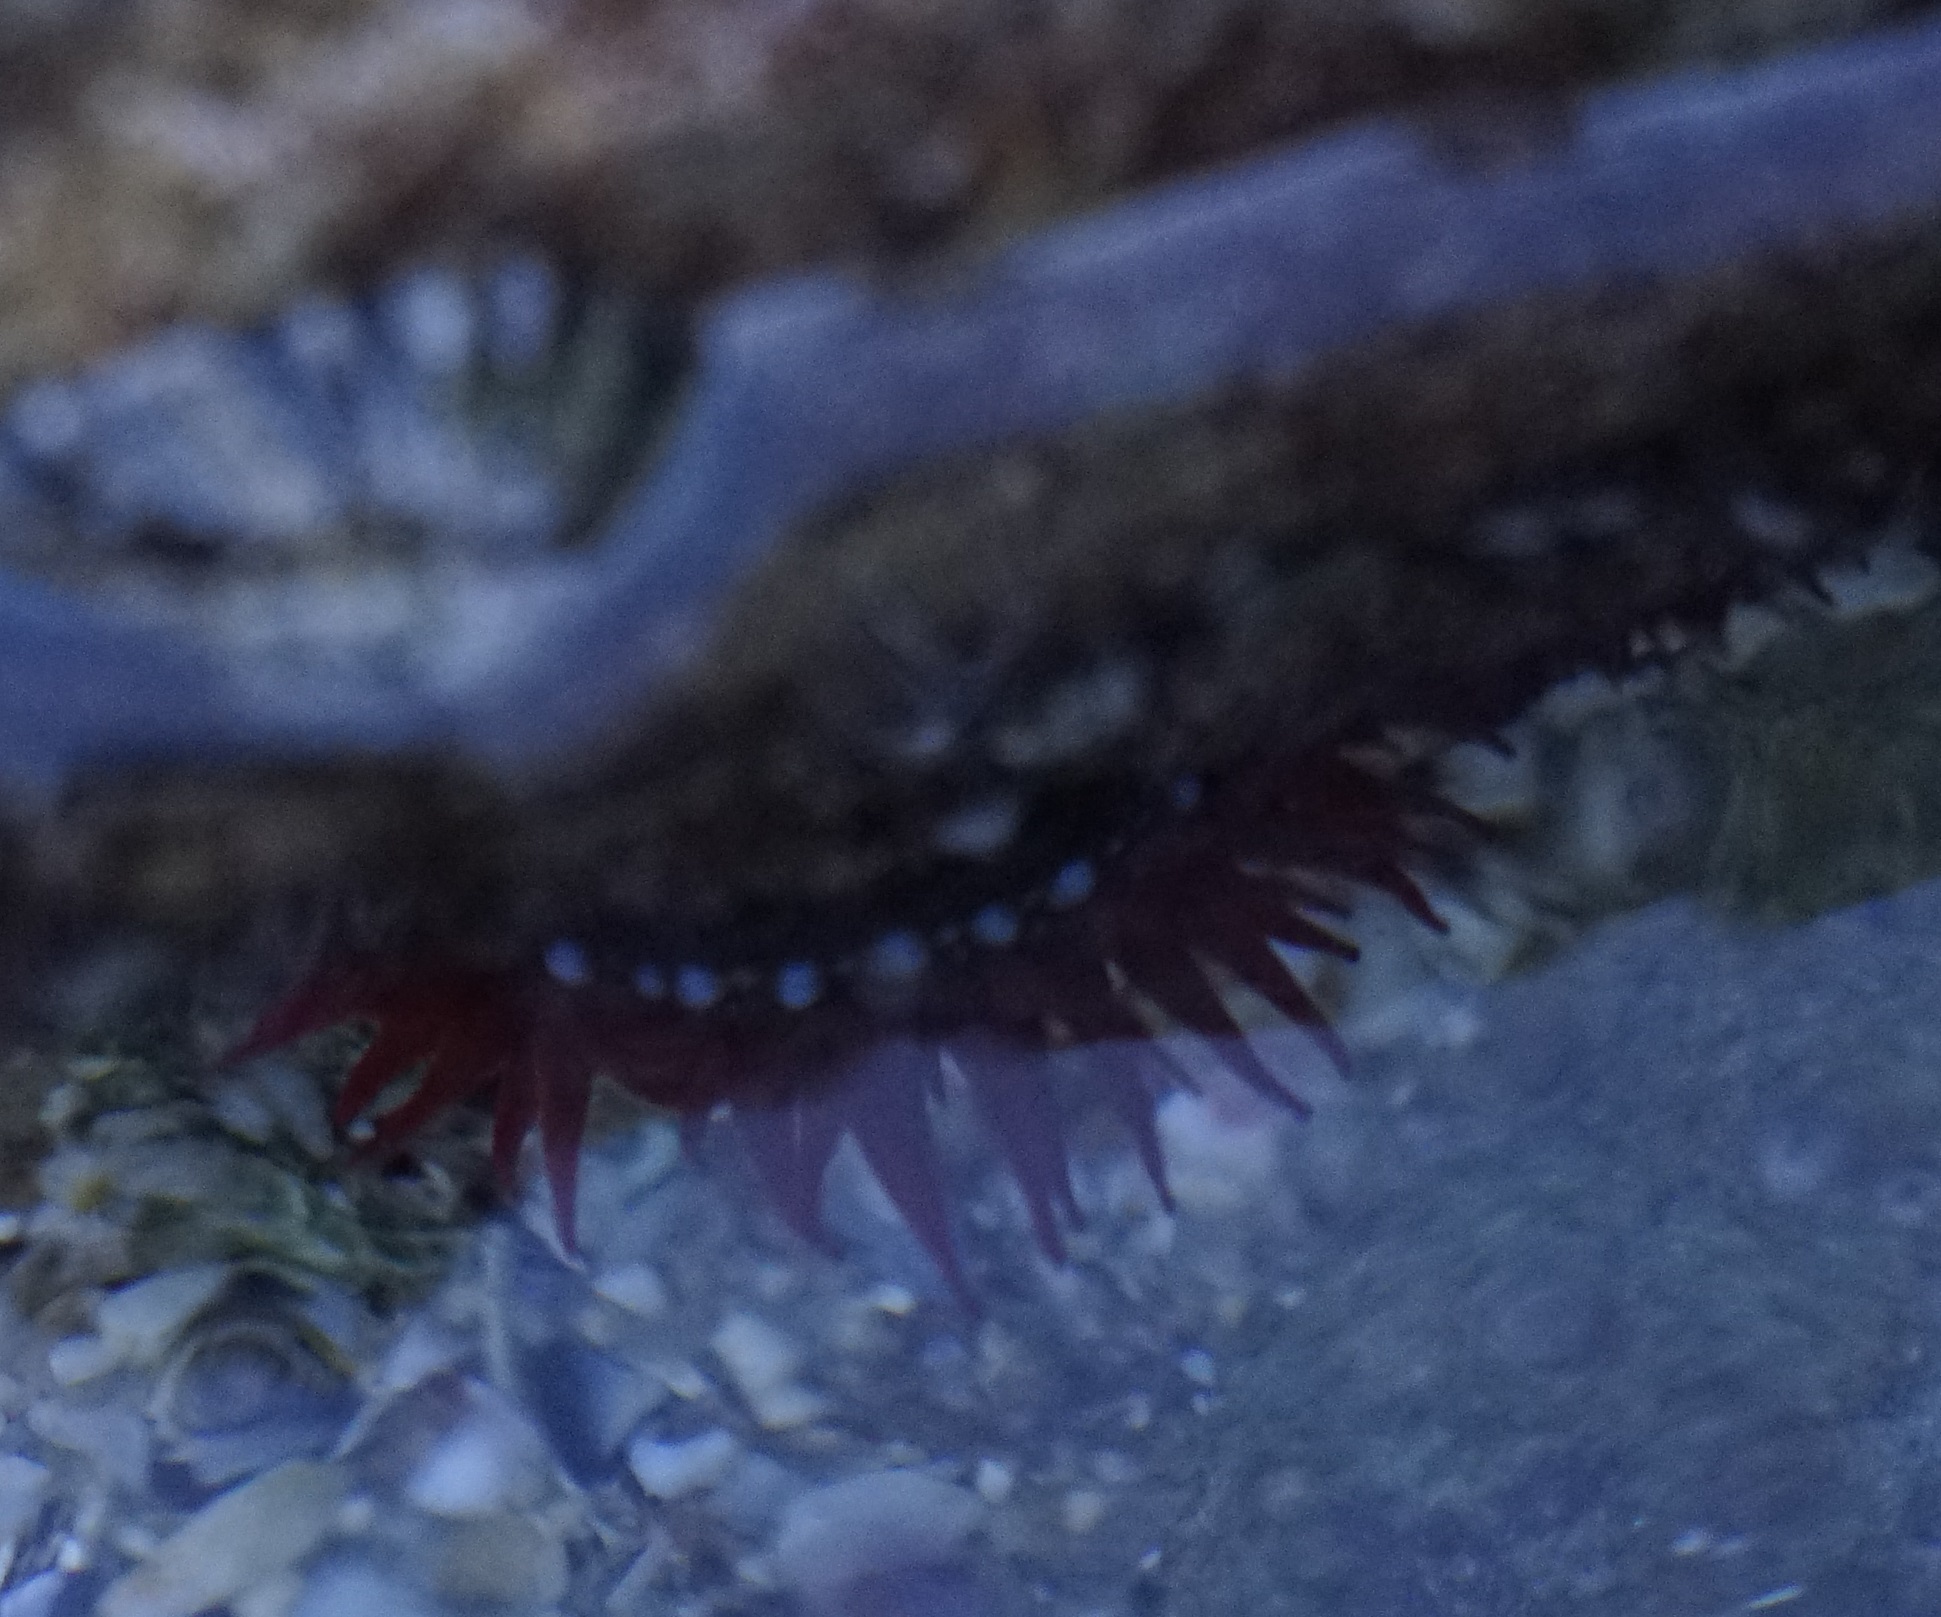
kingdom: Animalia
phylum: Cnidaria
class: Anthozoa
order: Actiniaria
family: Actiniidae
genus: Actinia
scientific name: Actinia tenebrosa
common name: Waratah anemone
